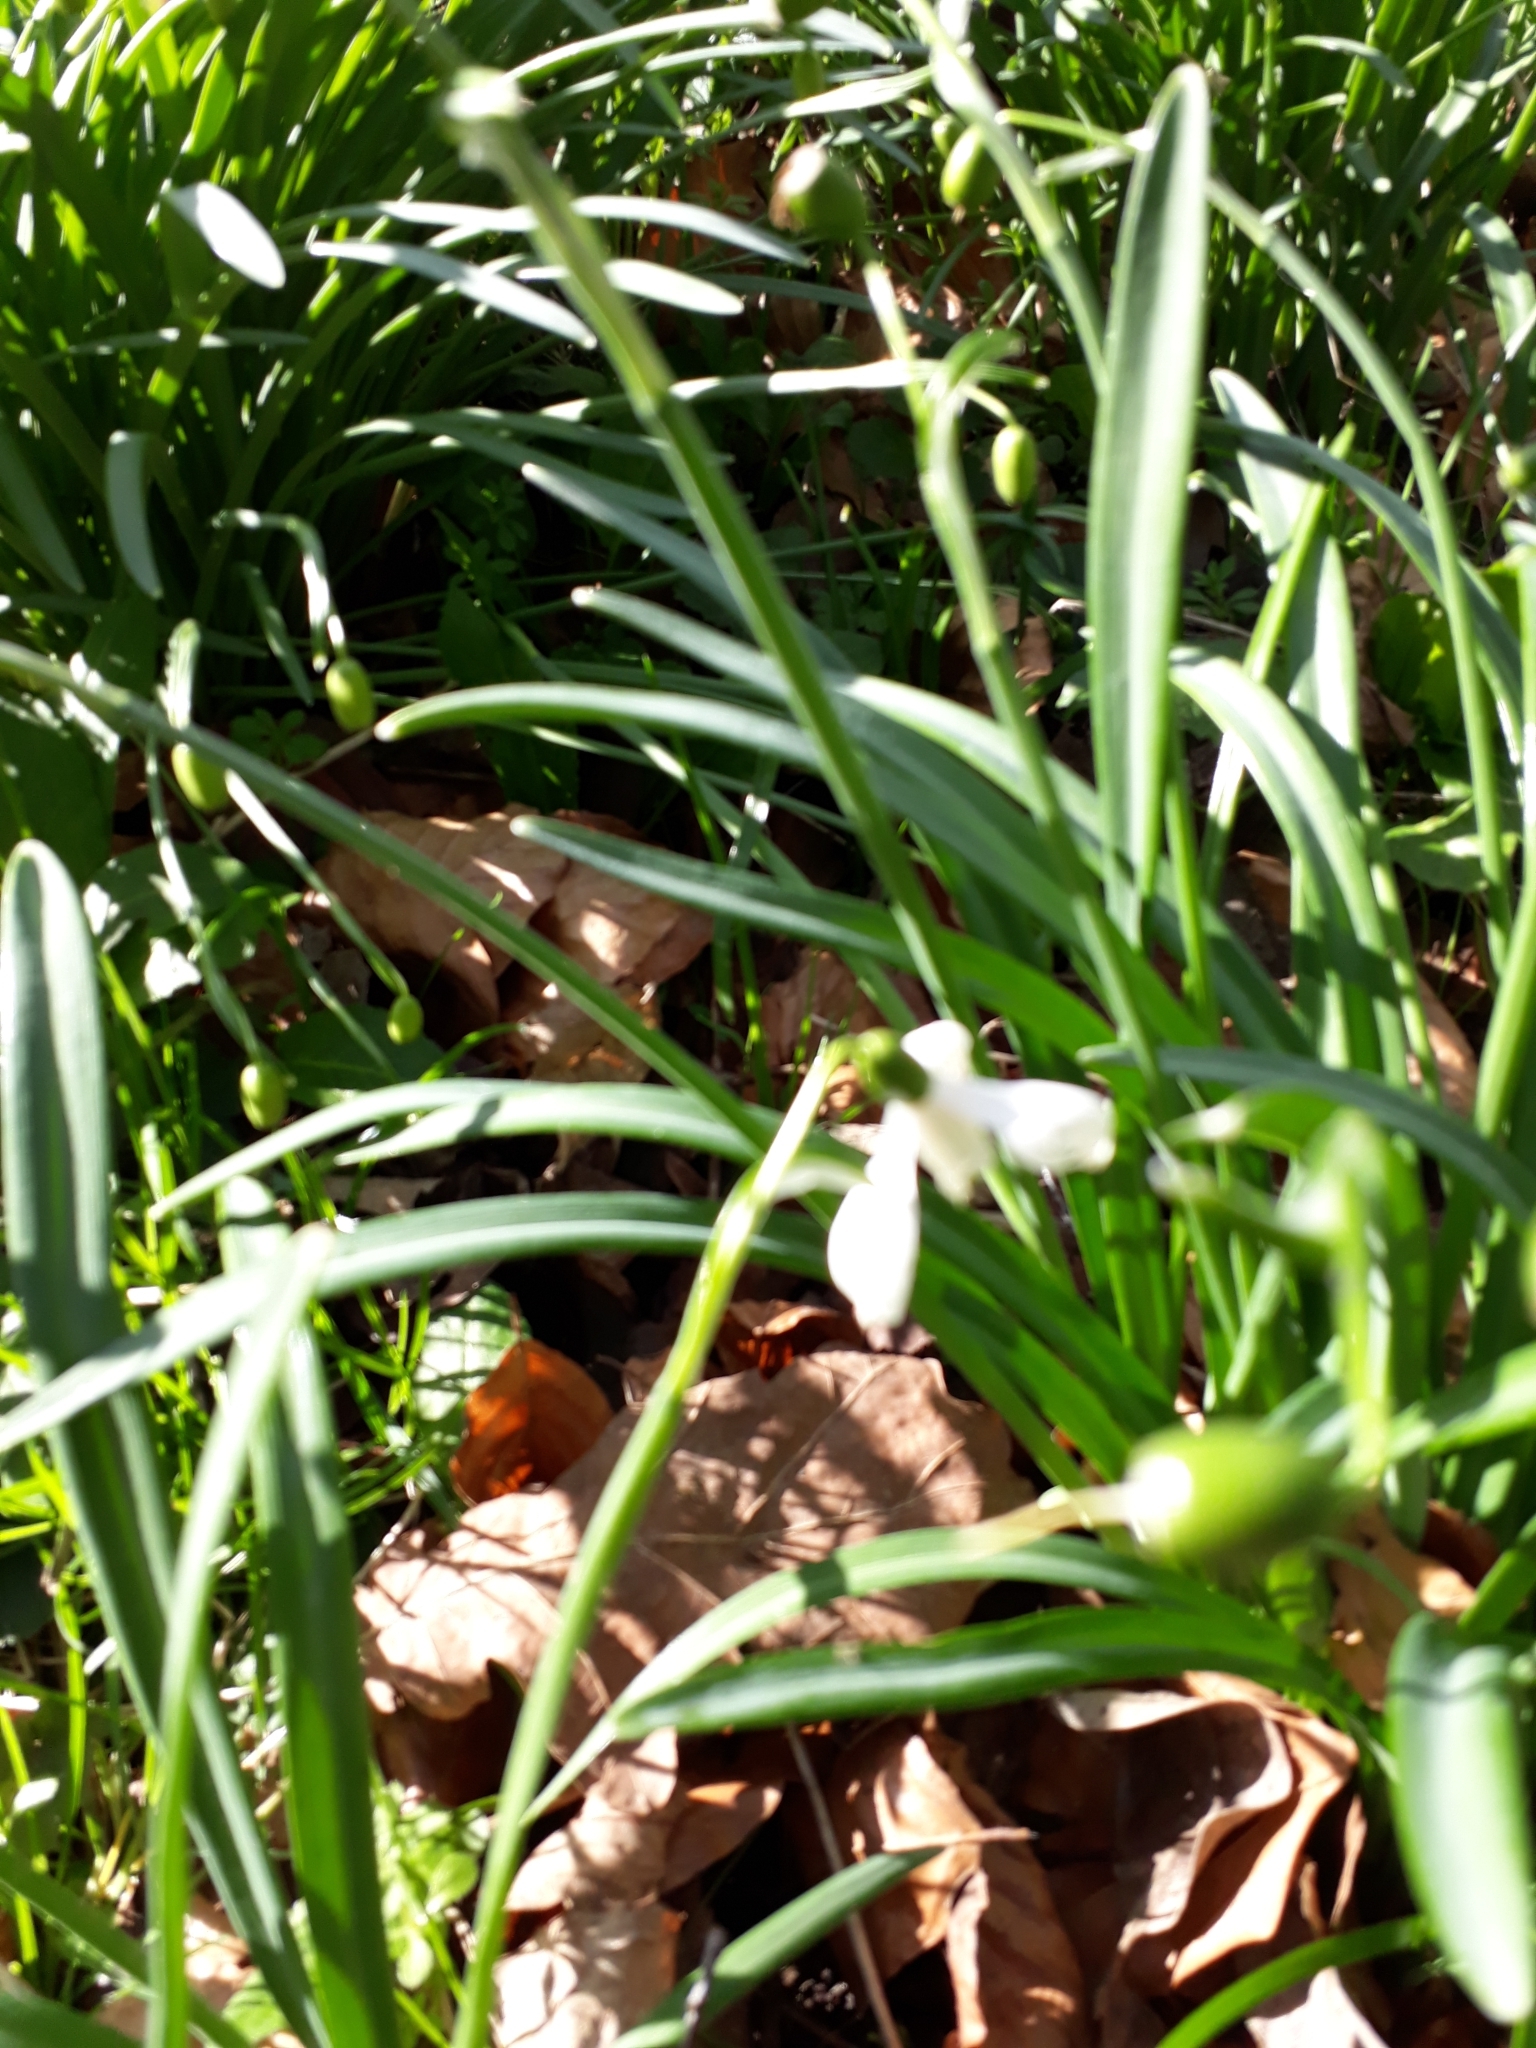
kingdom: Plantae
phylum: Tracheophyta
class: Liliopsida
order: Asparagales
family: Amaryllidaceae
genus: Galanthus
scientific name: Galanthus nivalis
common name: Snowdrop
